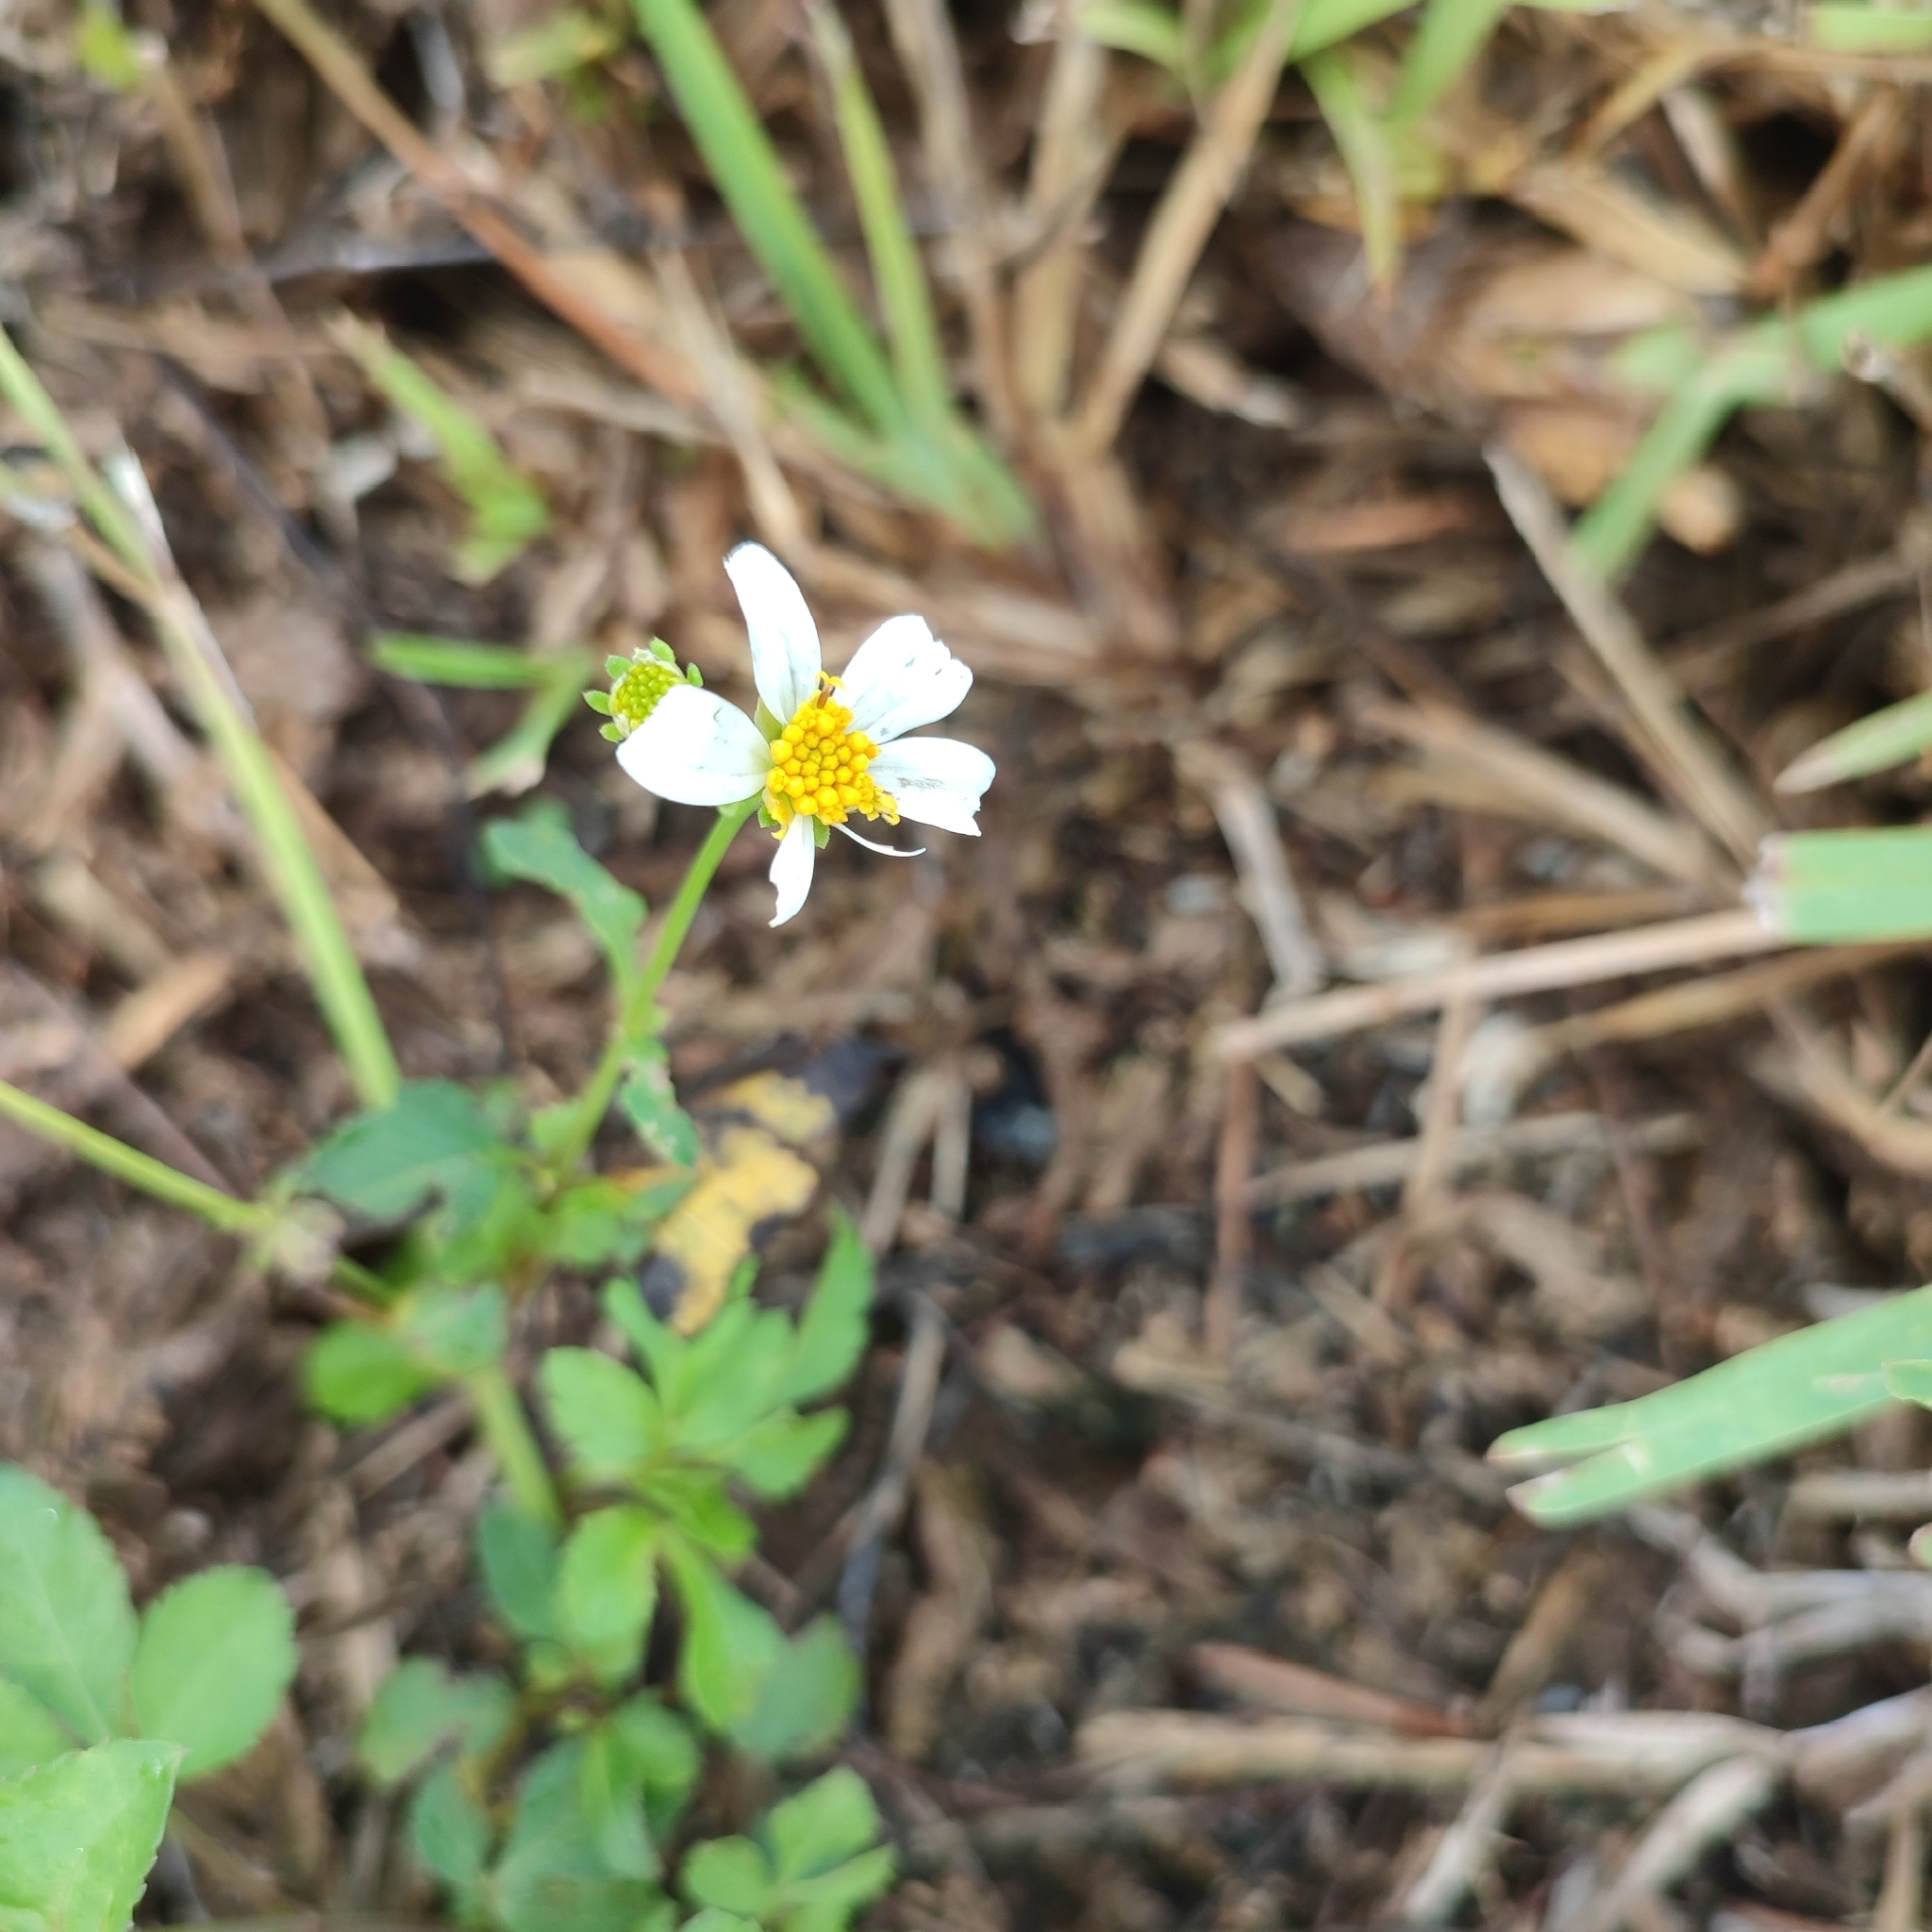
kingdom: Plantae
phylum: Tracheophyta
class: Magnoliopsida
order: Asterales
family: Asteraceae
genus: Bidens
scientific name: Bidens alba
